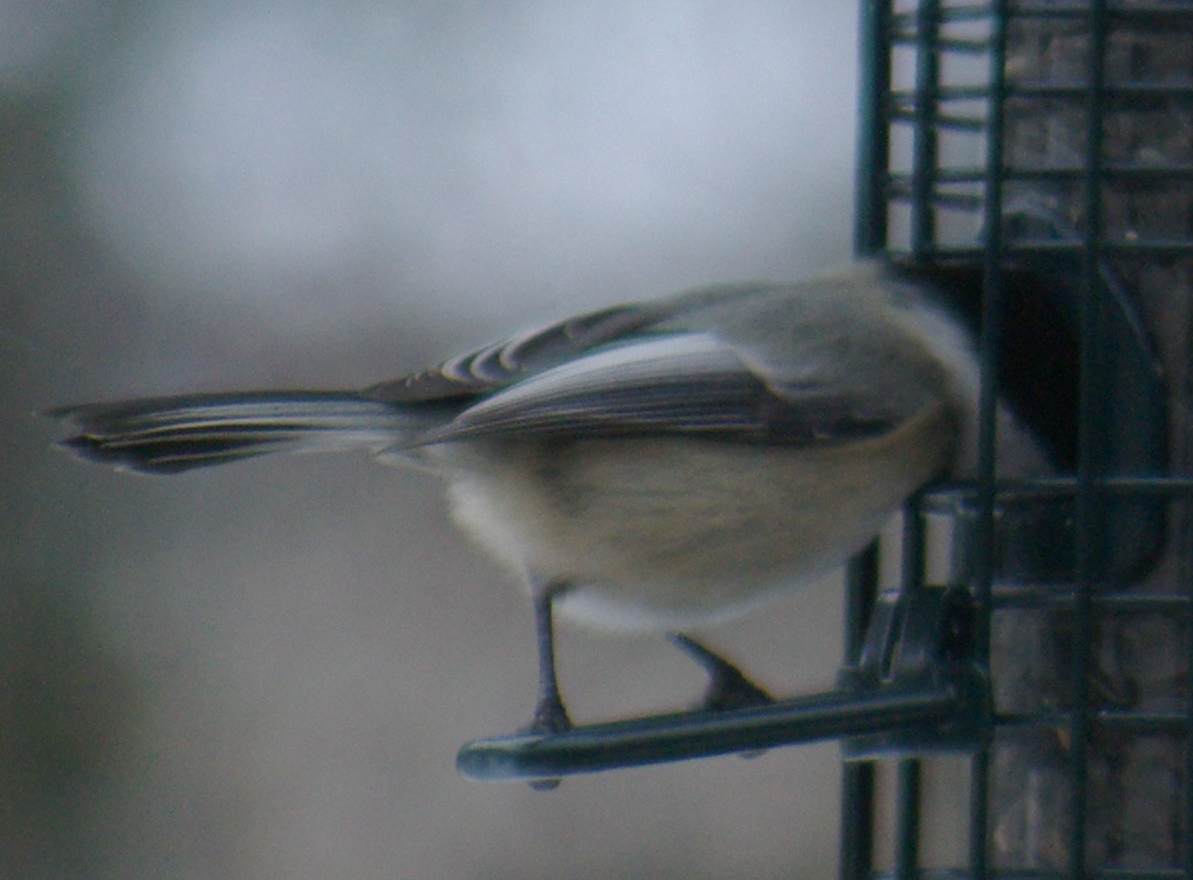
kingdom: Animalia
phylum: Chordata
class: Aves
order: Passeriformes
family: Paridae
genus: Poecile
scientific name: Poecile atricapillus
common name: Black-capped chickadee
